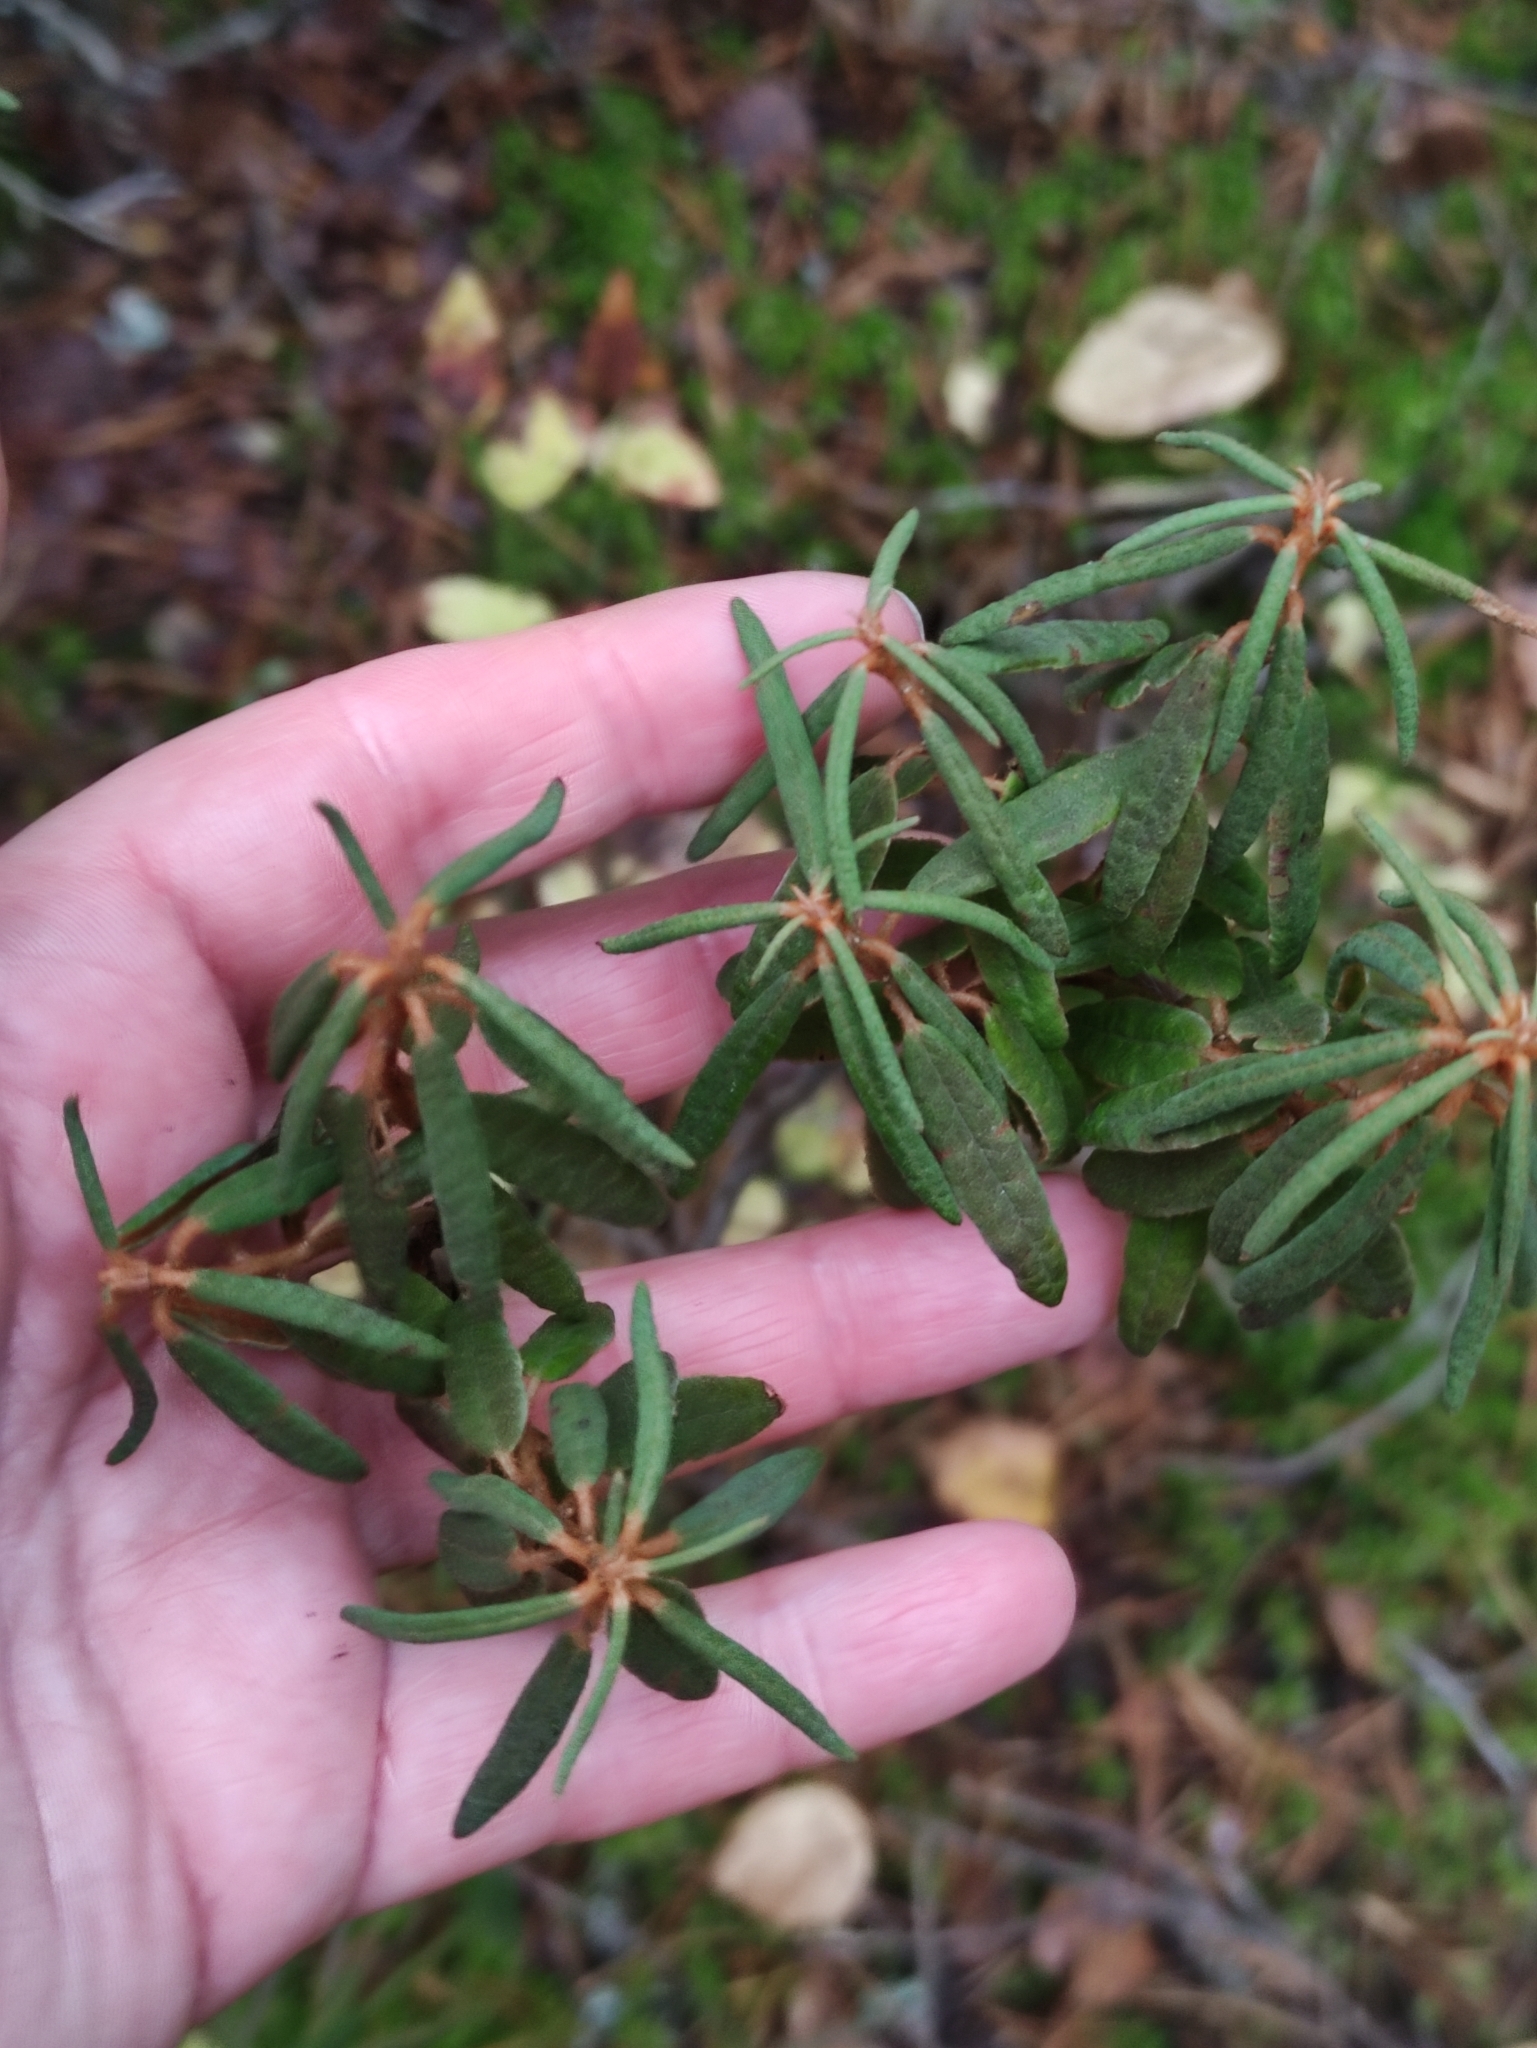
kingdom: Plantae
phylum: Tracheophyta
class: Magnoliopsida
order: Ericales
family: Ericaceae
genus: Rhododendron
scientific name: Rhododendron tomentosum
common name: Marsh labrador tea
